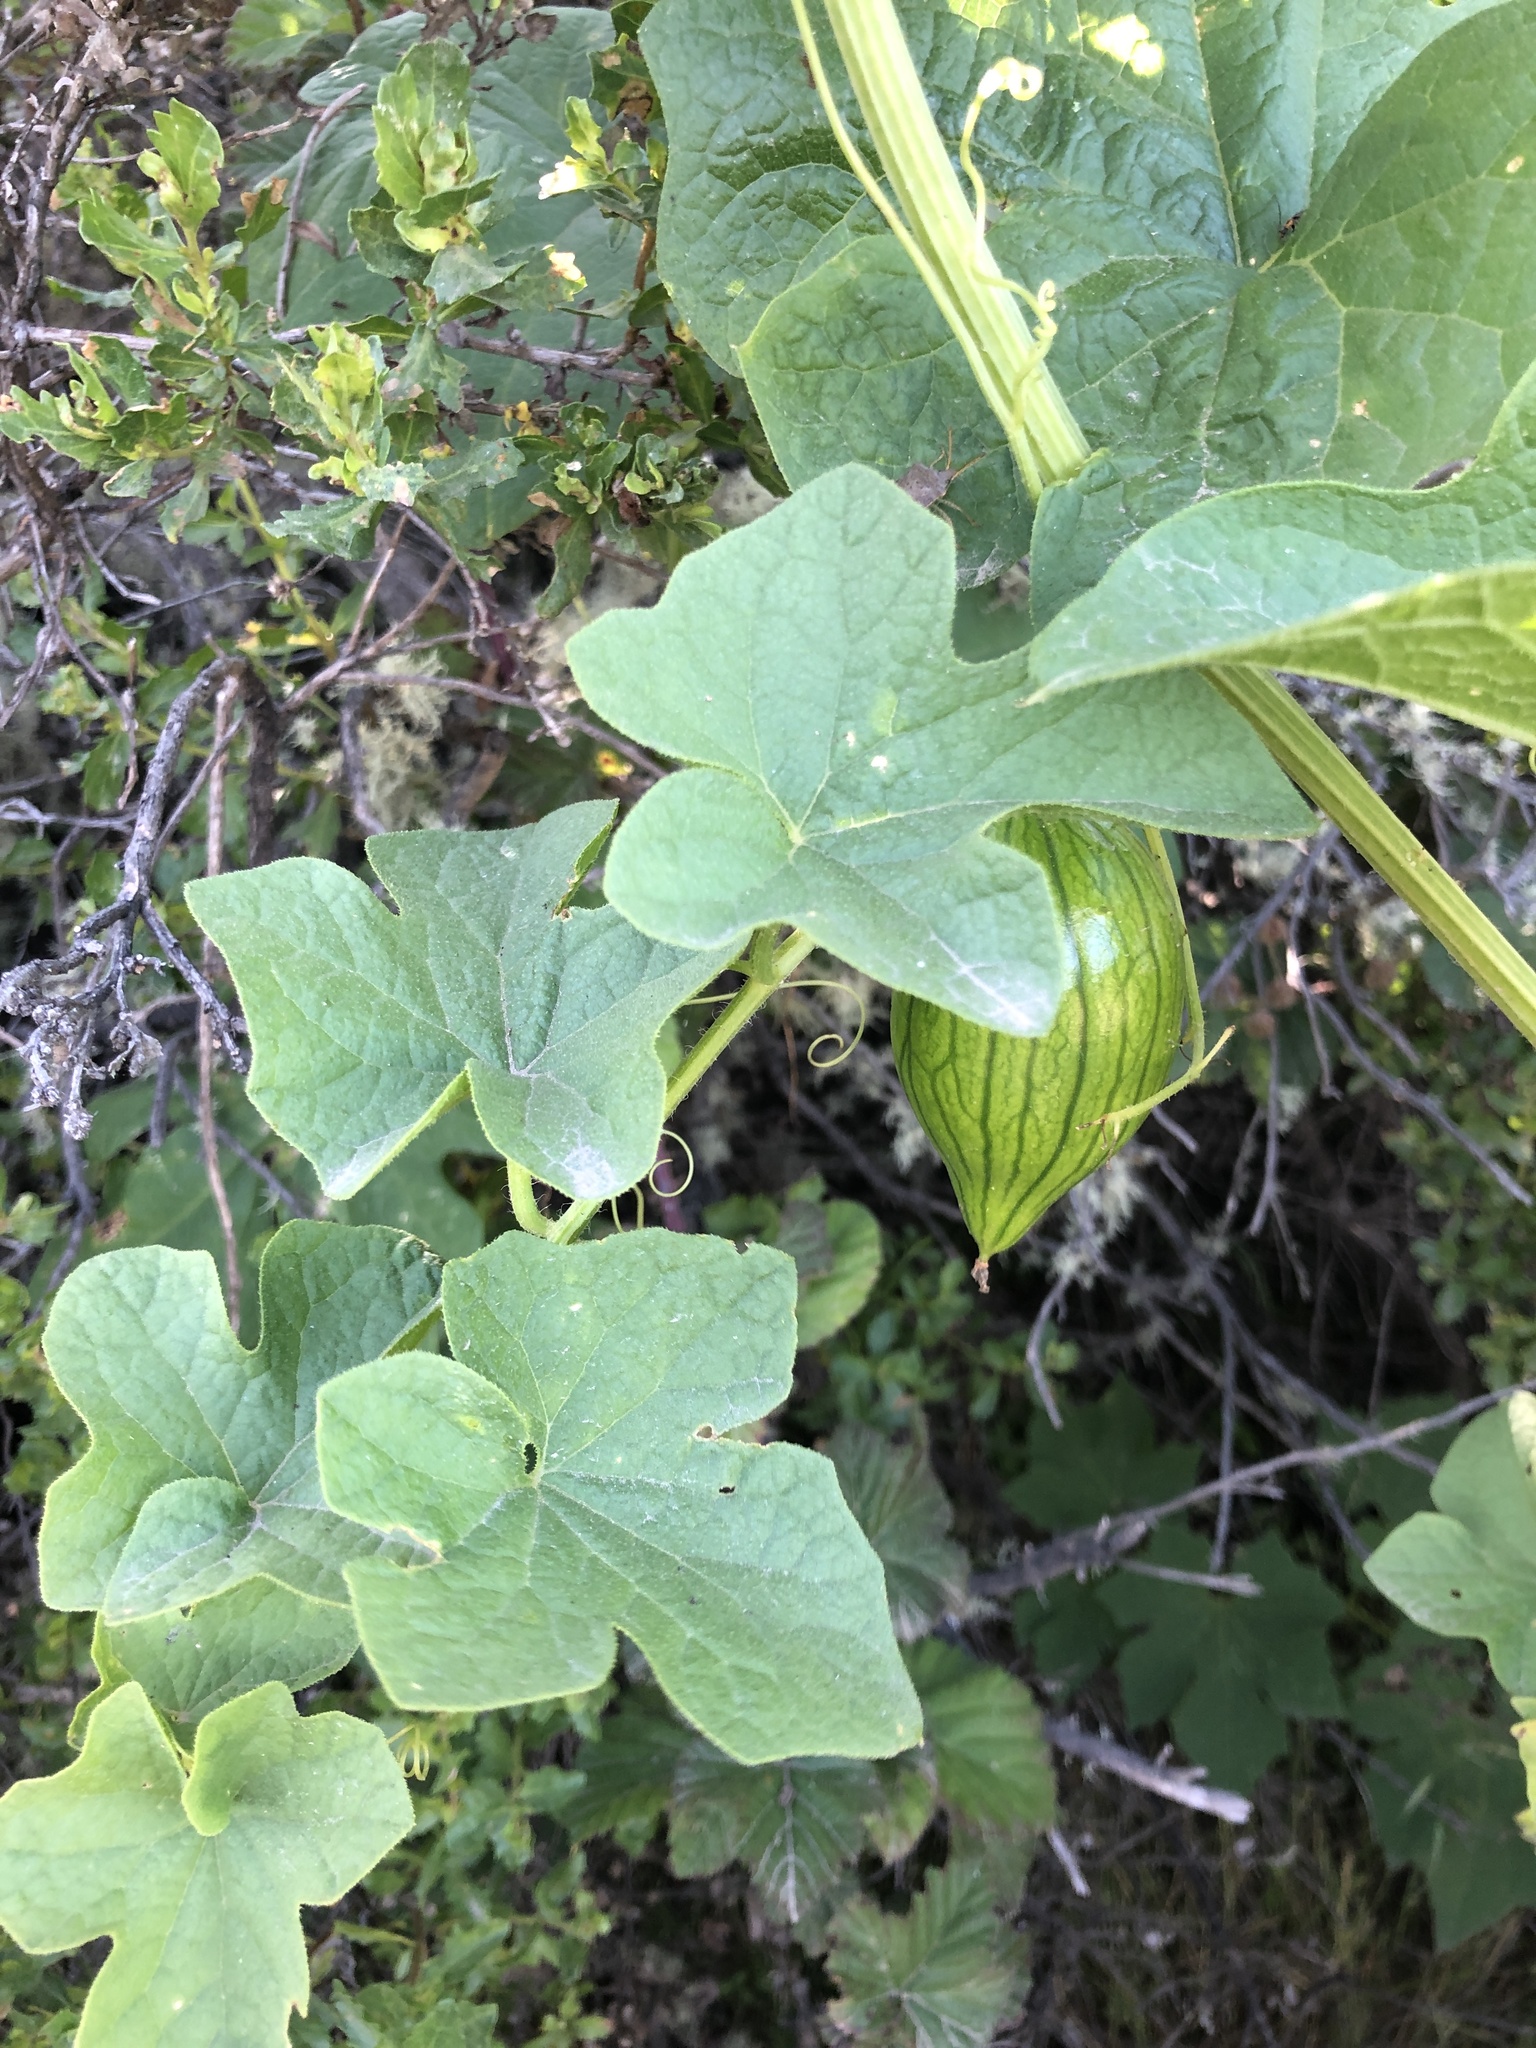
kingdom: Plantae
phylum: Tracheophyta
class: Magnoliopsida
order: Cucurbitales
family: Cucurbitaceae
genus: Marah
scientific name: Marah oregana
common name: Coastal manroot
